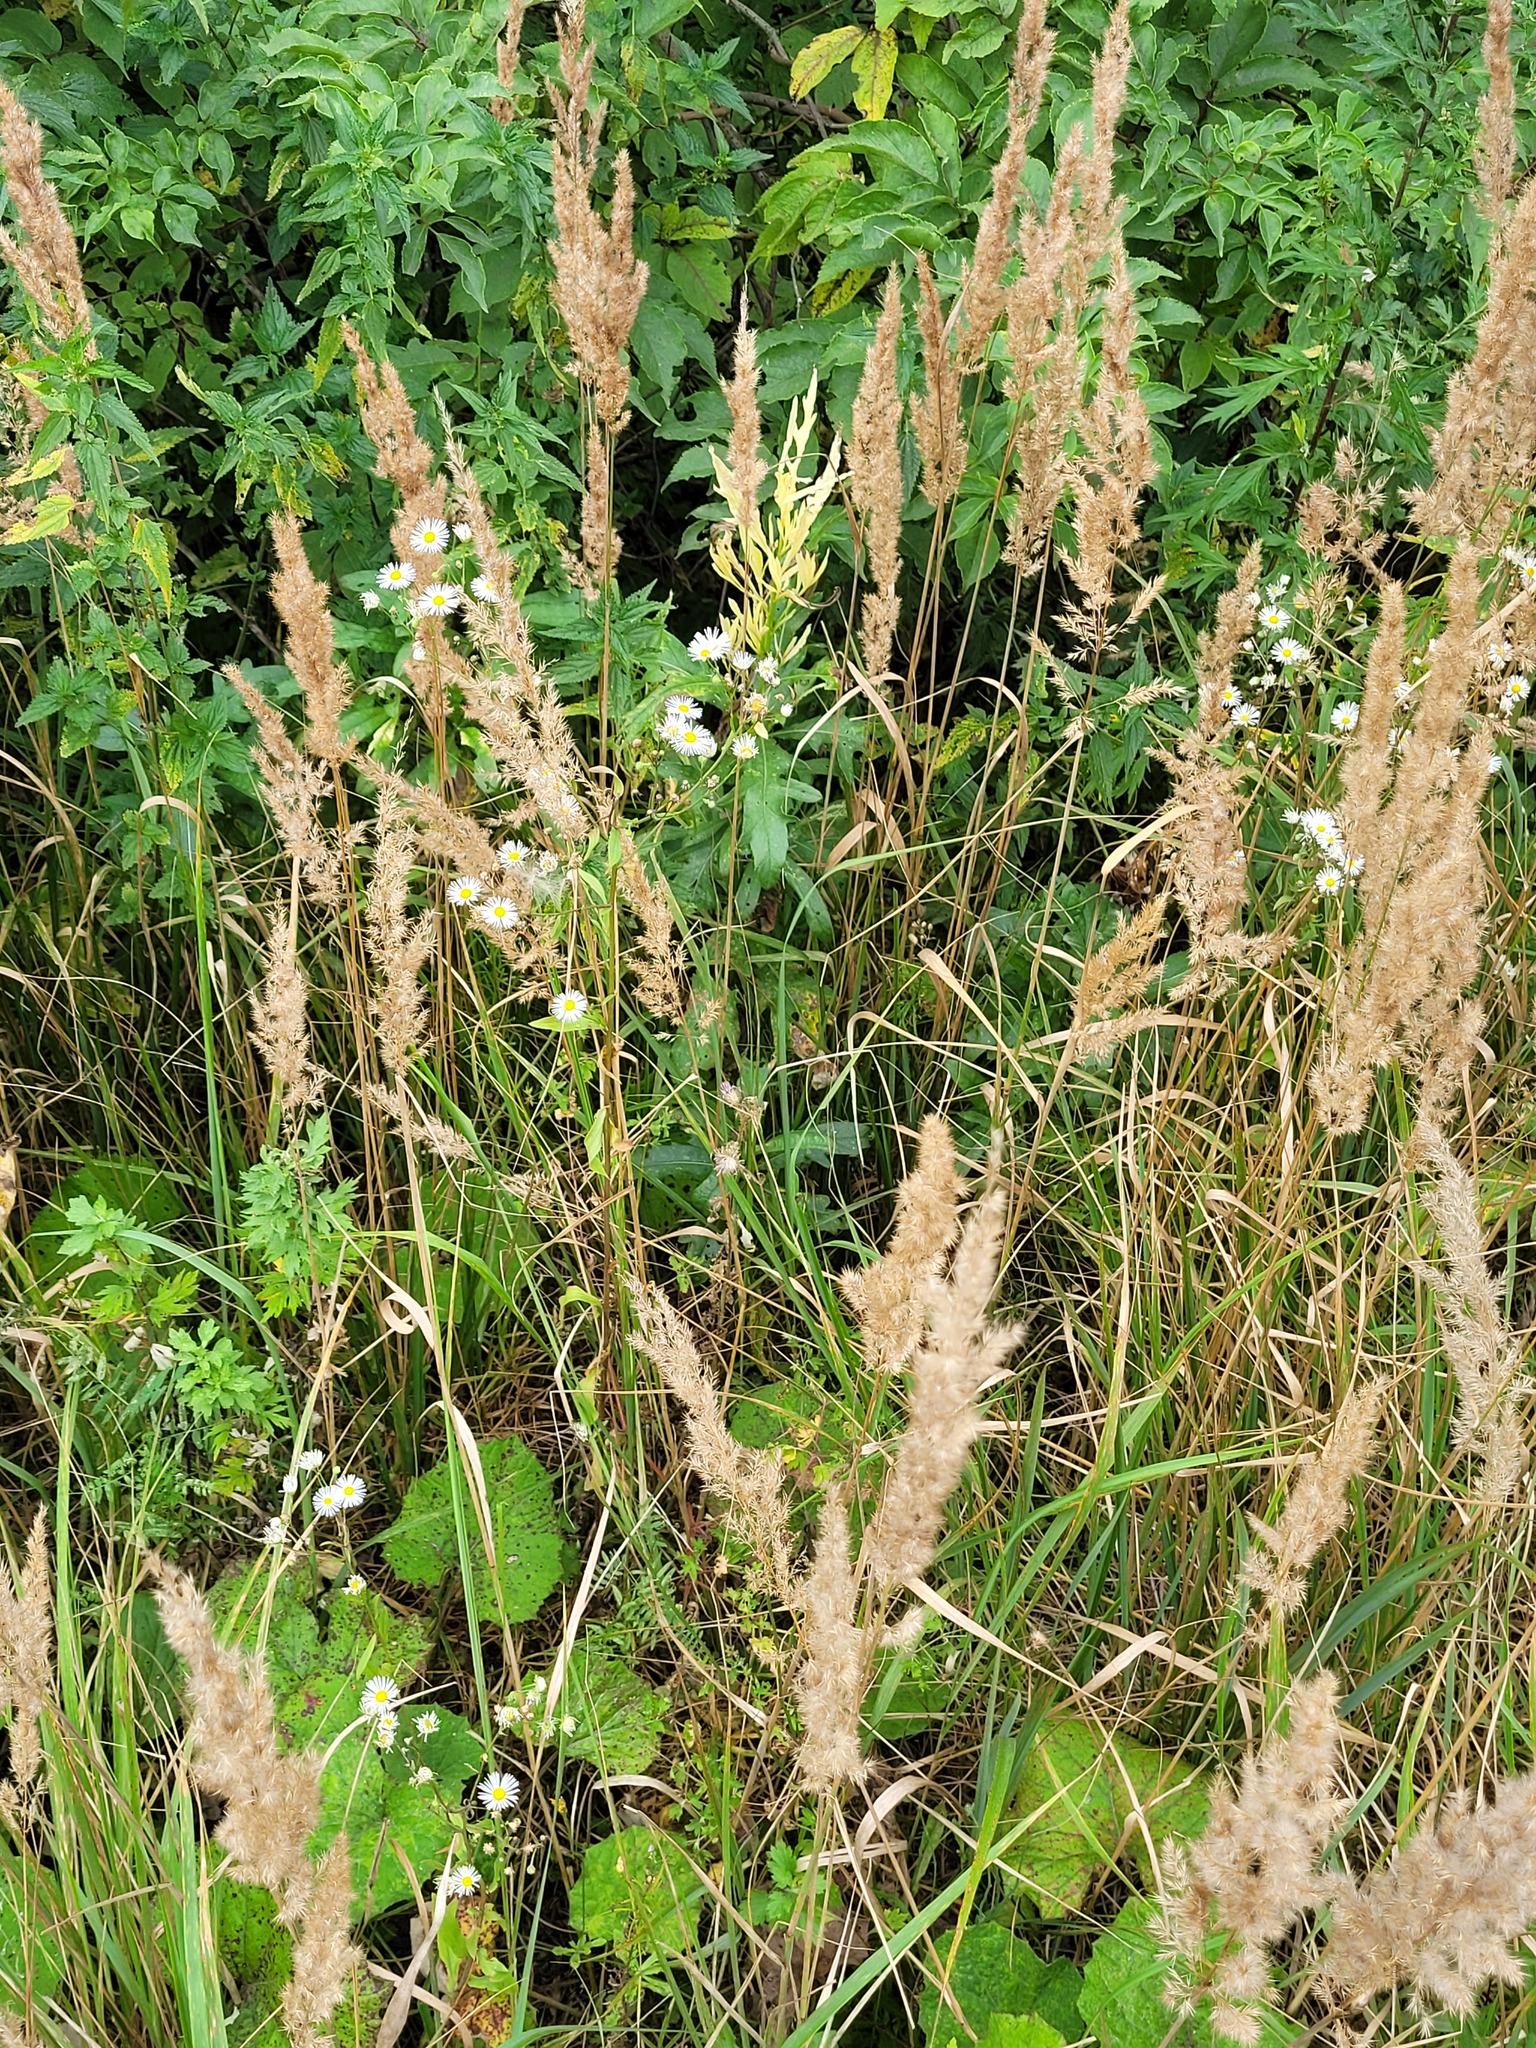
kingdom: Plantae
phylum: Tracheophyta
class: Magnoliopsida
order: Asterales
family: Asteraceae
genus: Erigeron
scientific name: Erigeron annuus
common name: Tall fleabane
